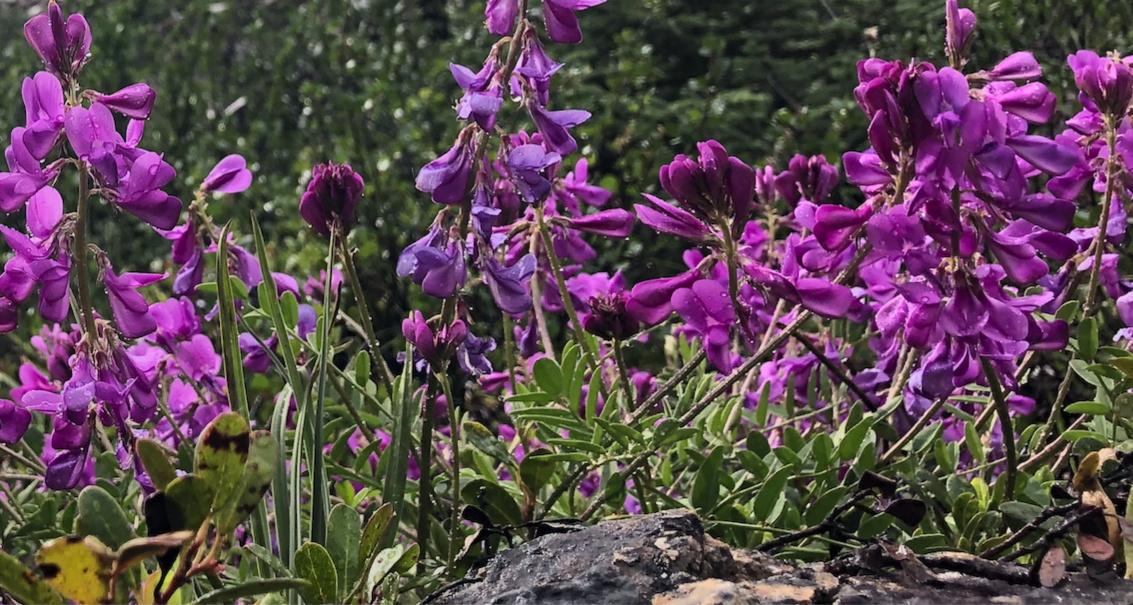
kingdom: Plantae
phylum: Tracheophyta
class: Magnoliopsida
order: Fabales
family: Fabaceae
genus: Hedysarum
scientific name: Hedysarum boreale
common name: Northern sweet-vetch
